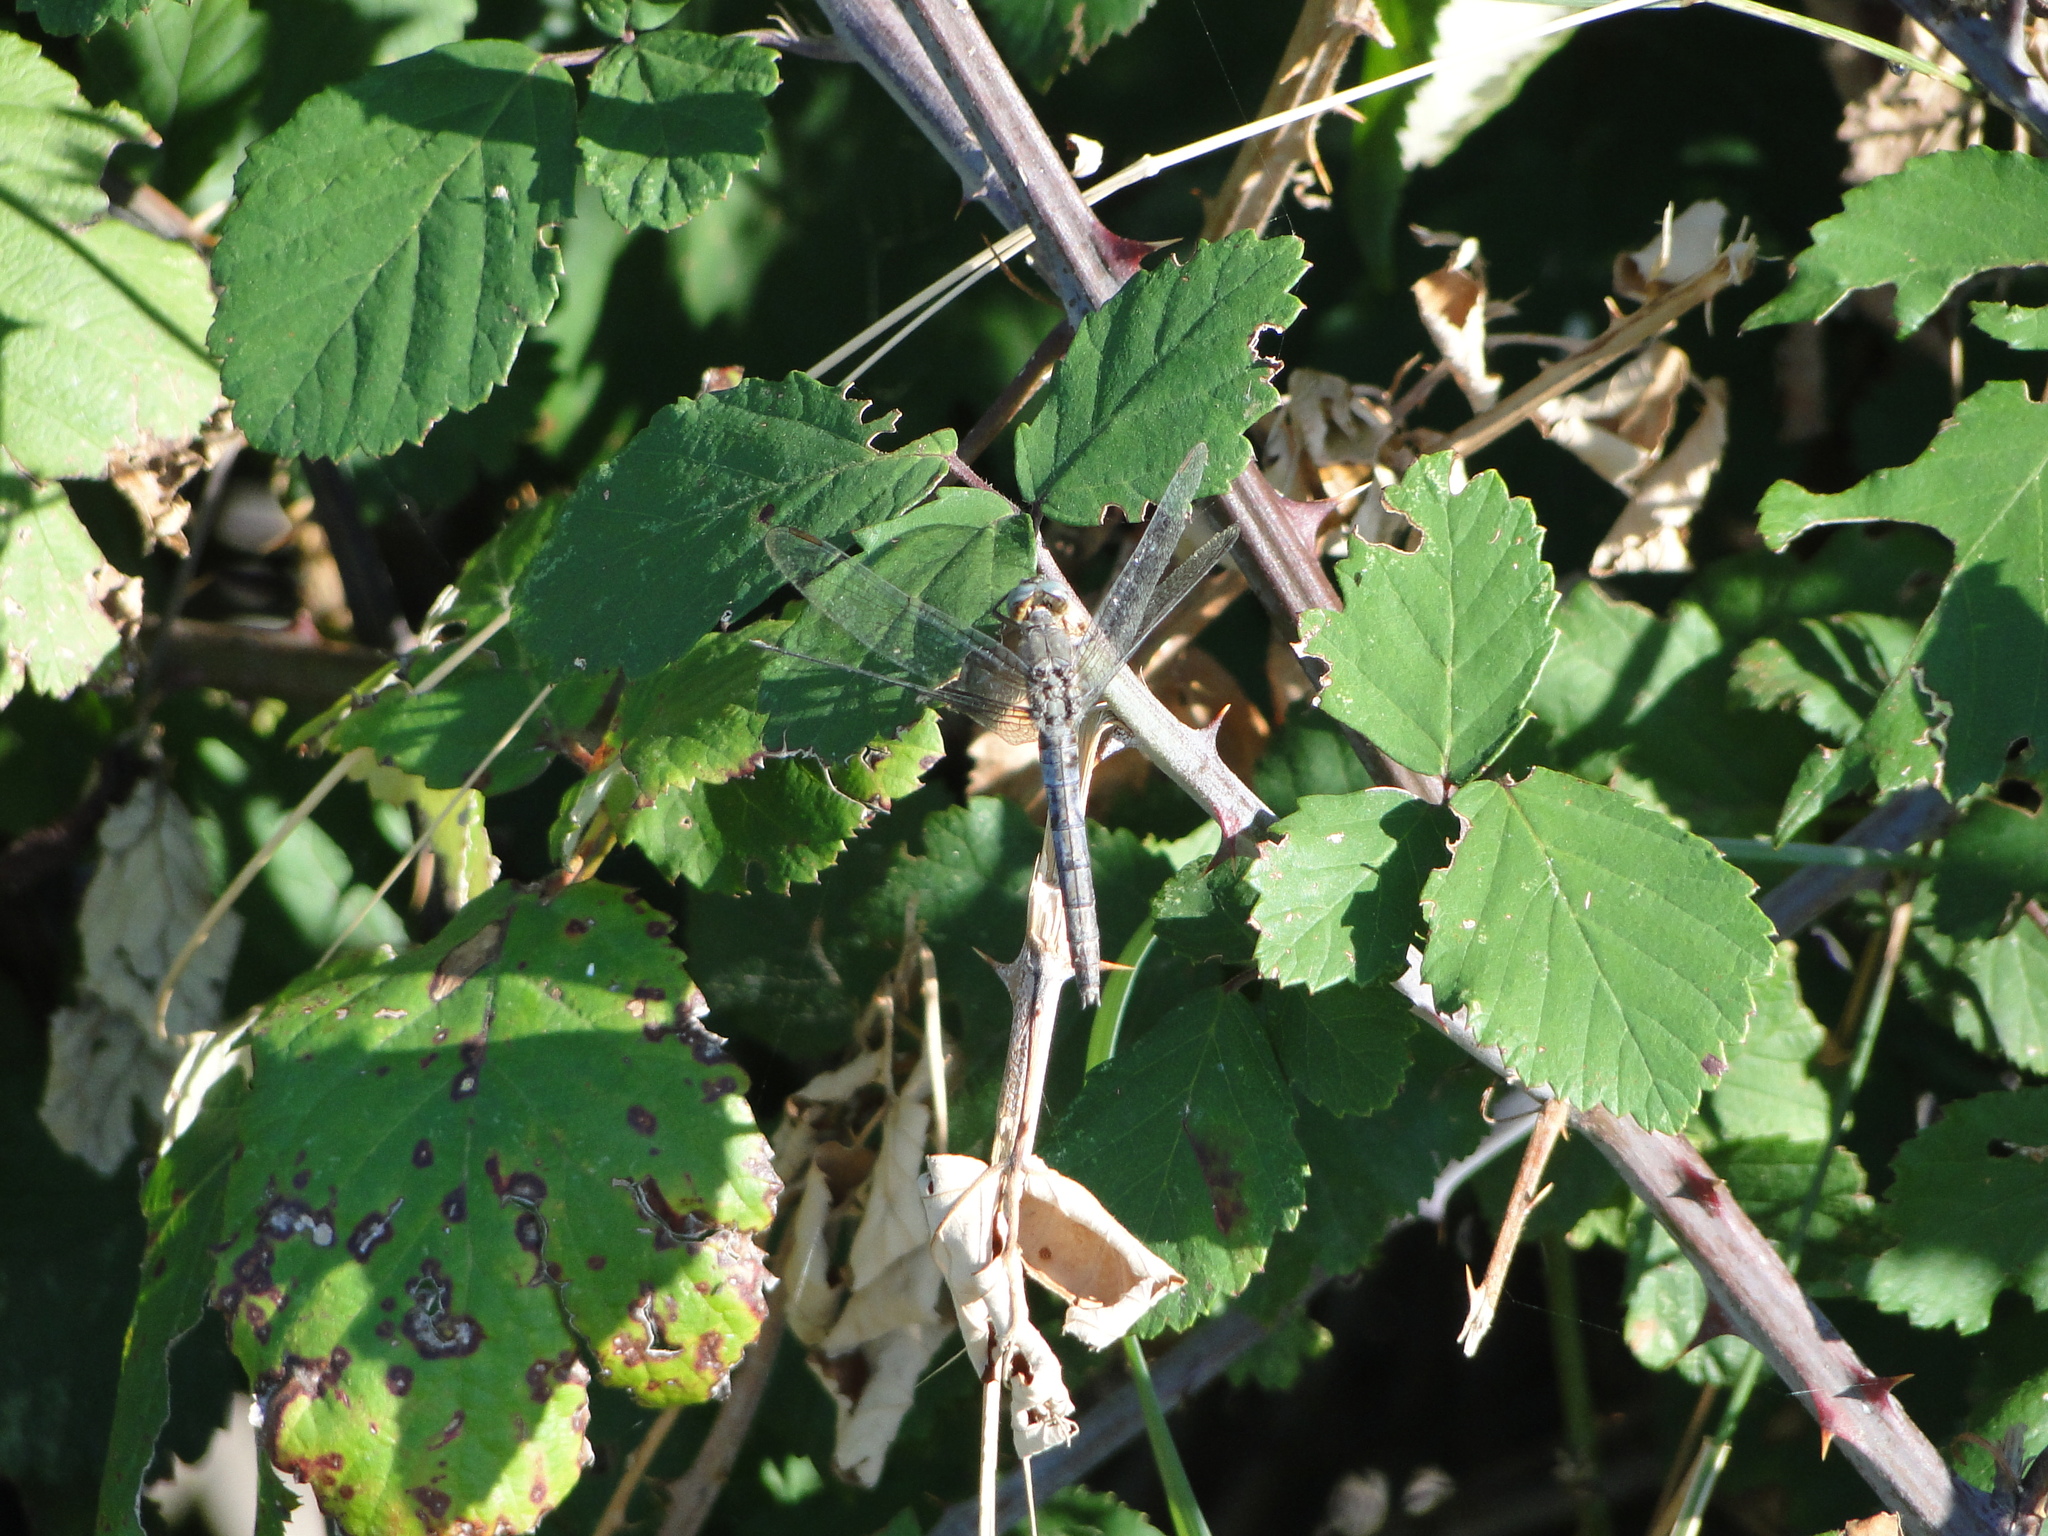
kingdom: Animalia
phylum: Arthropoda
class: Insecta
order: Odonata
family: Libellulidae
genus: Orthetrum
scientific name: Orthetrum coerulescens
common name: Keeled skimmer
